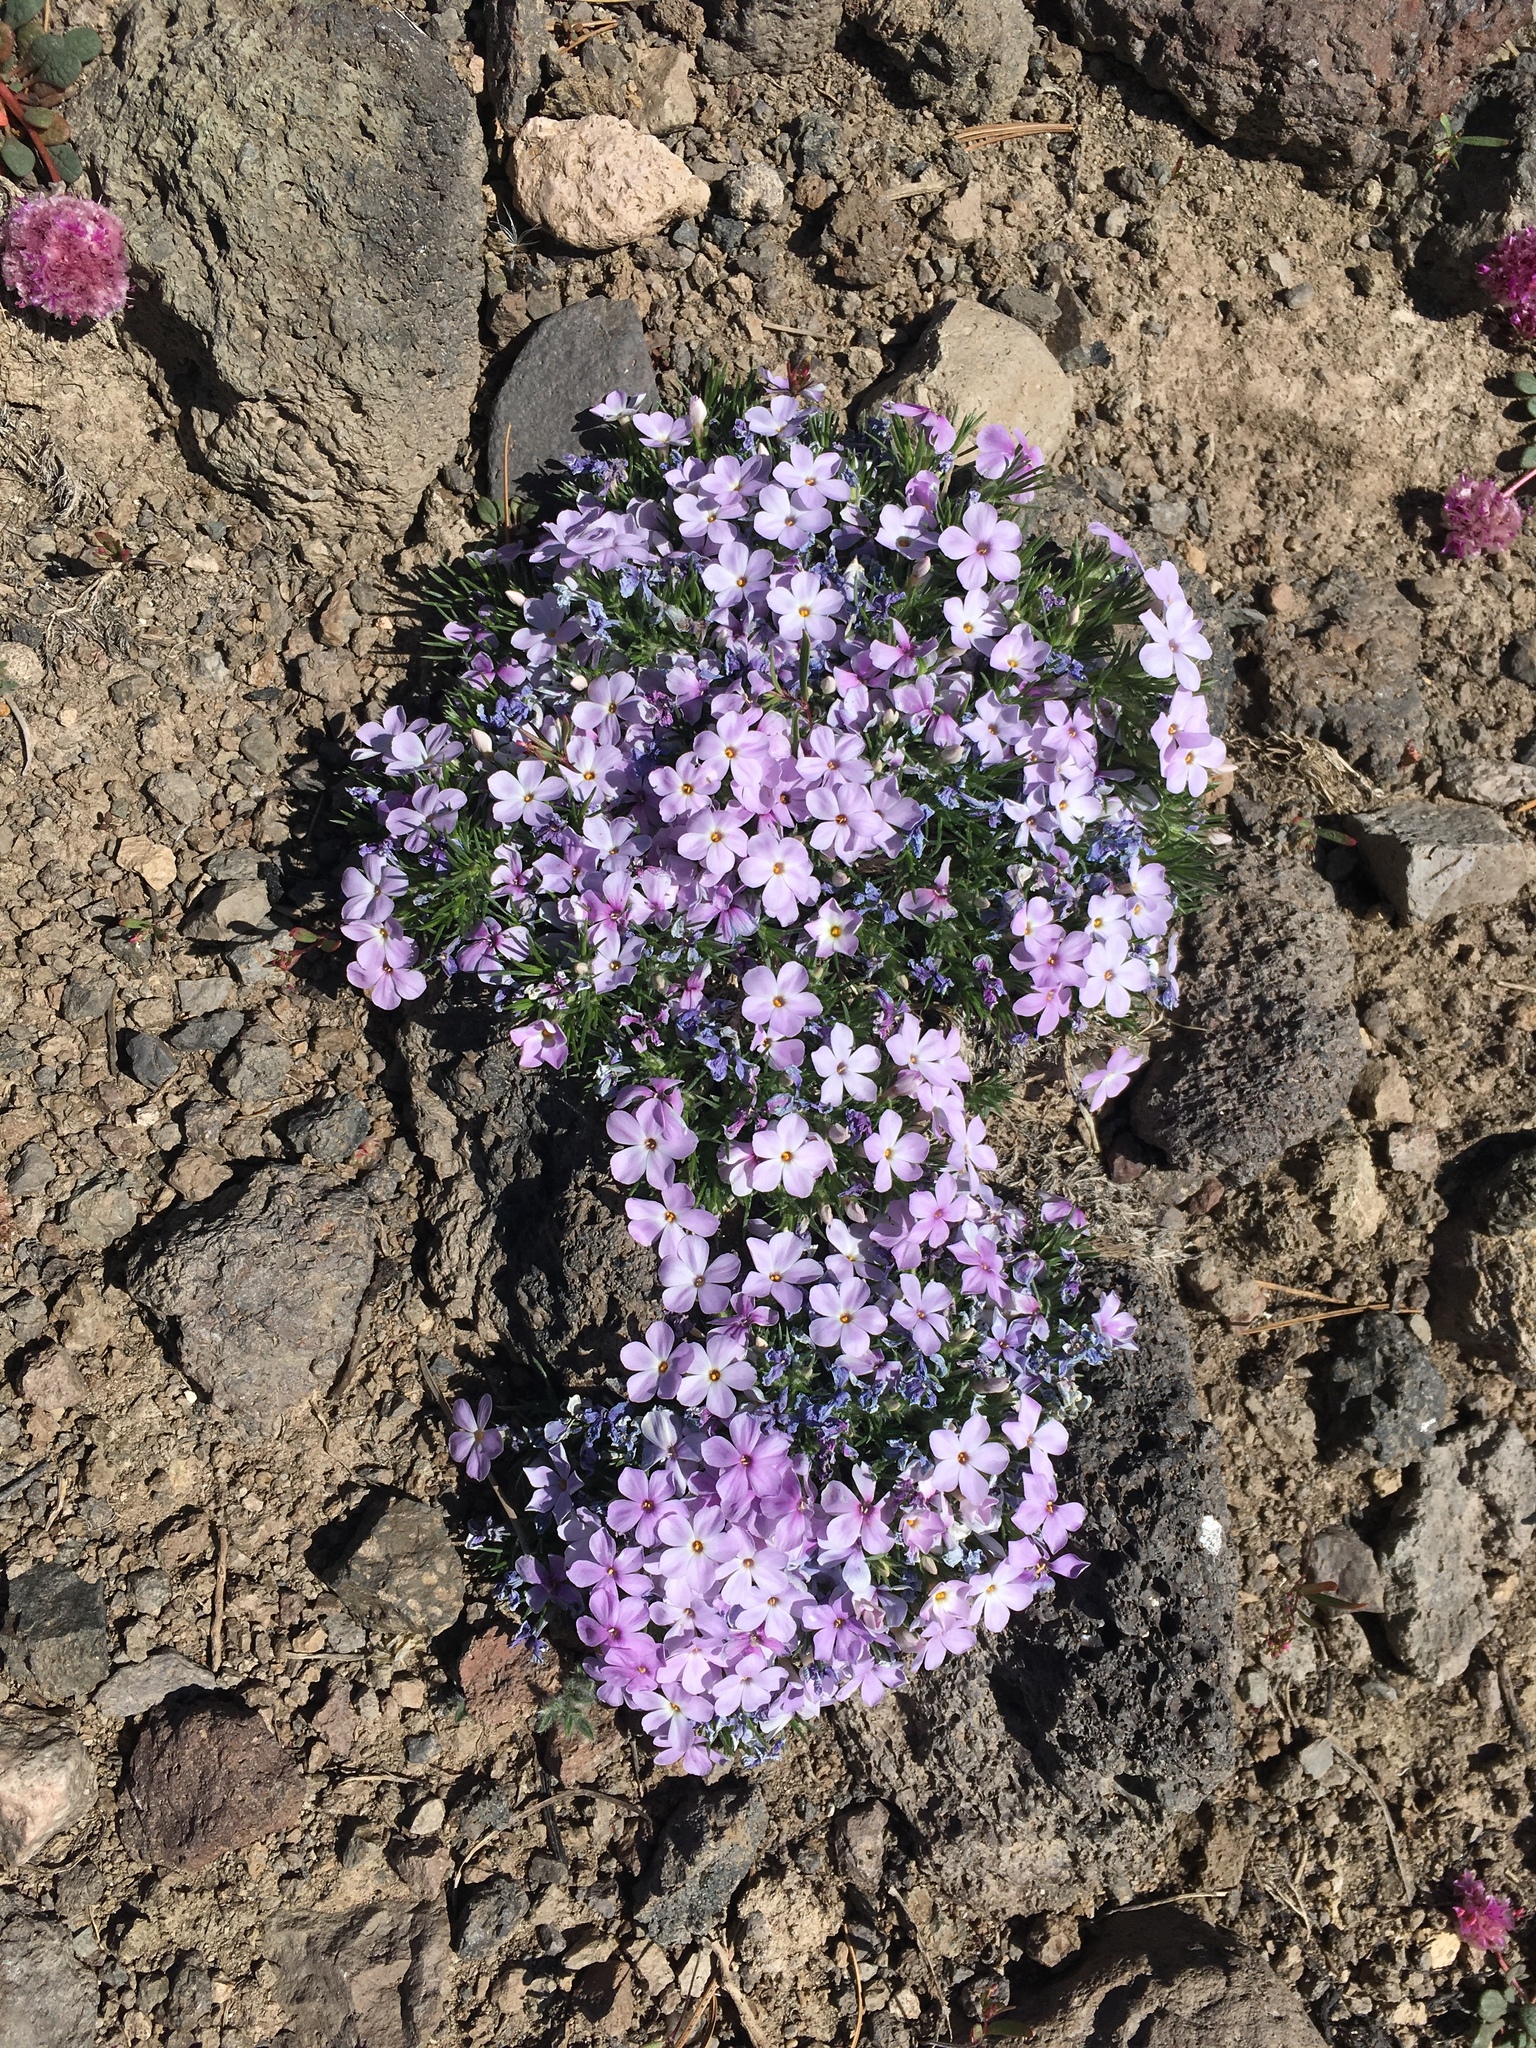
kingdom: Plantae
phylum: Tracheophyta
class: Magnoliopsida
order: Ericales
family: Polemoniaceae
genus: Phlox
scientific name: Phlox diffusa
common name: Mat phlox
